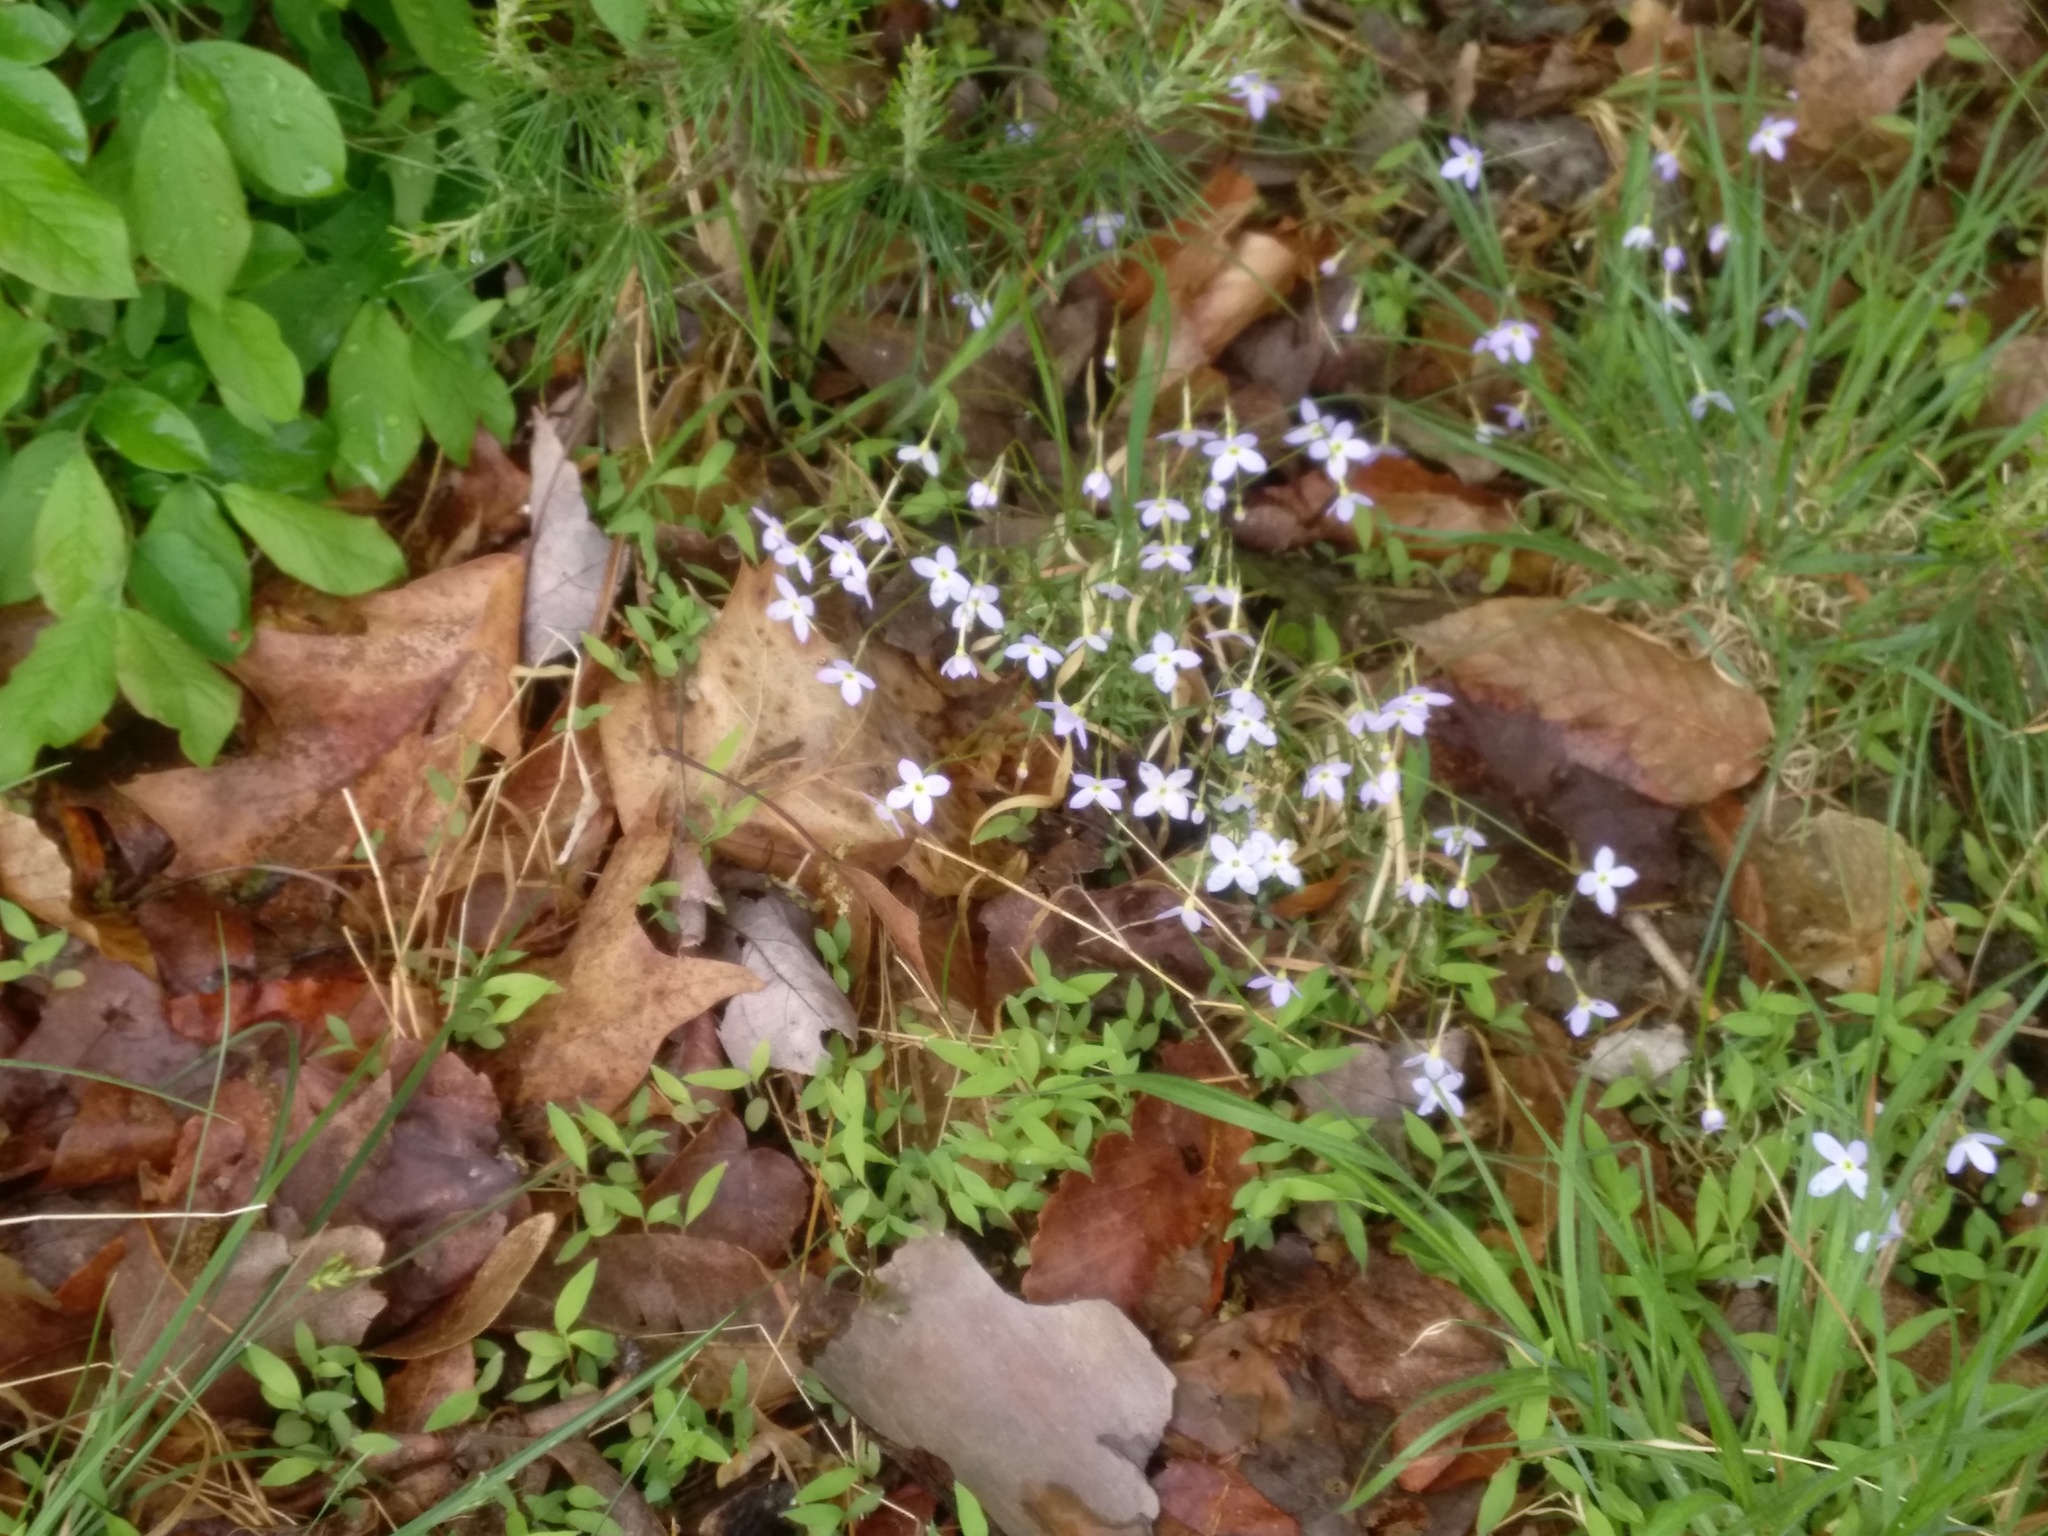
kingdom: Plantae
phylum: Tracheophyta
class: Magnoliopsida
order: Gentianales
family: Rubiaceae
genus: Houstonia
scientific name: Houstonia caerulea
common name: Bluets
